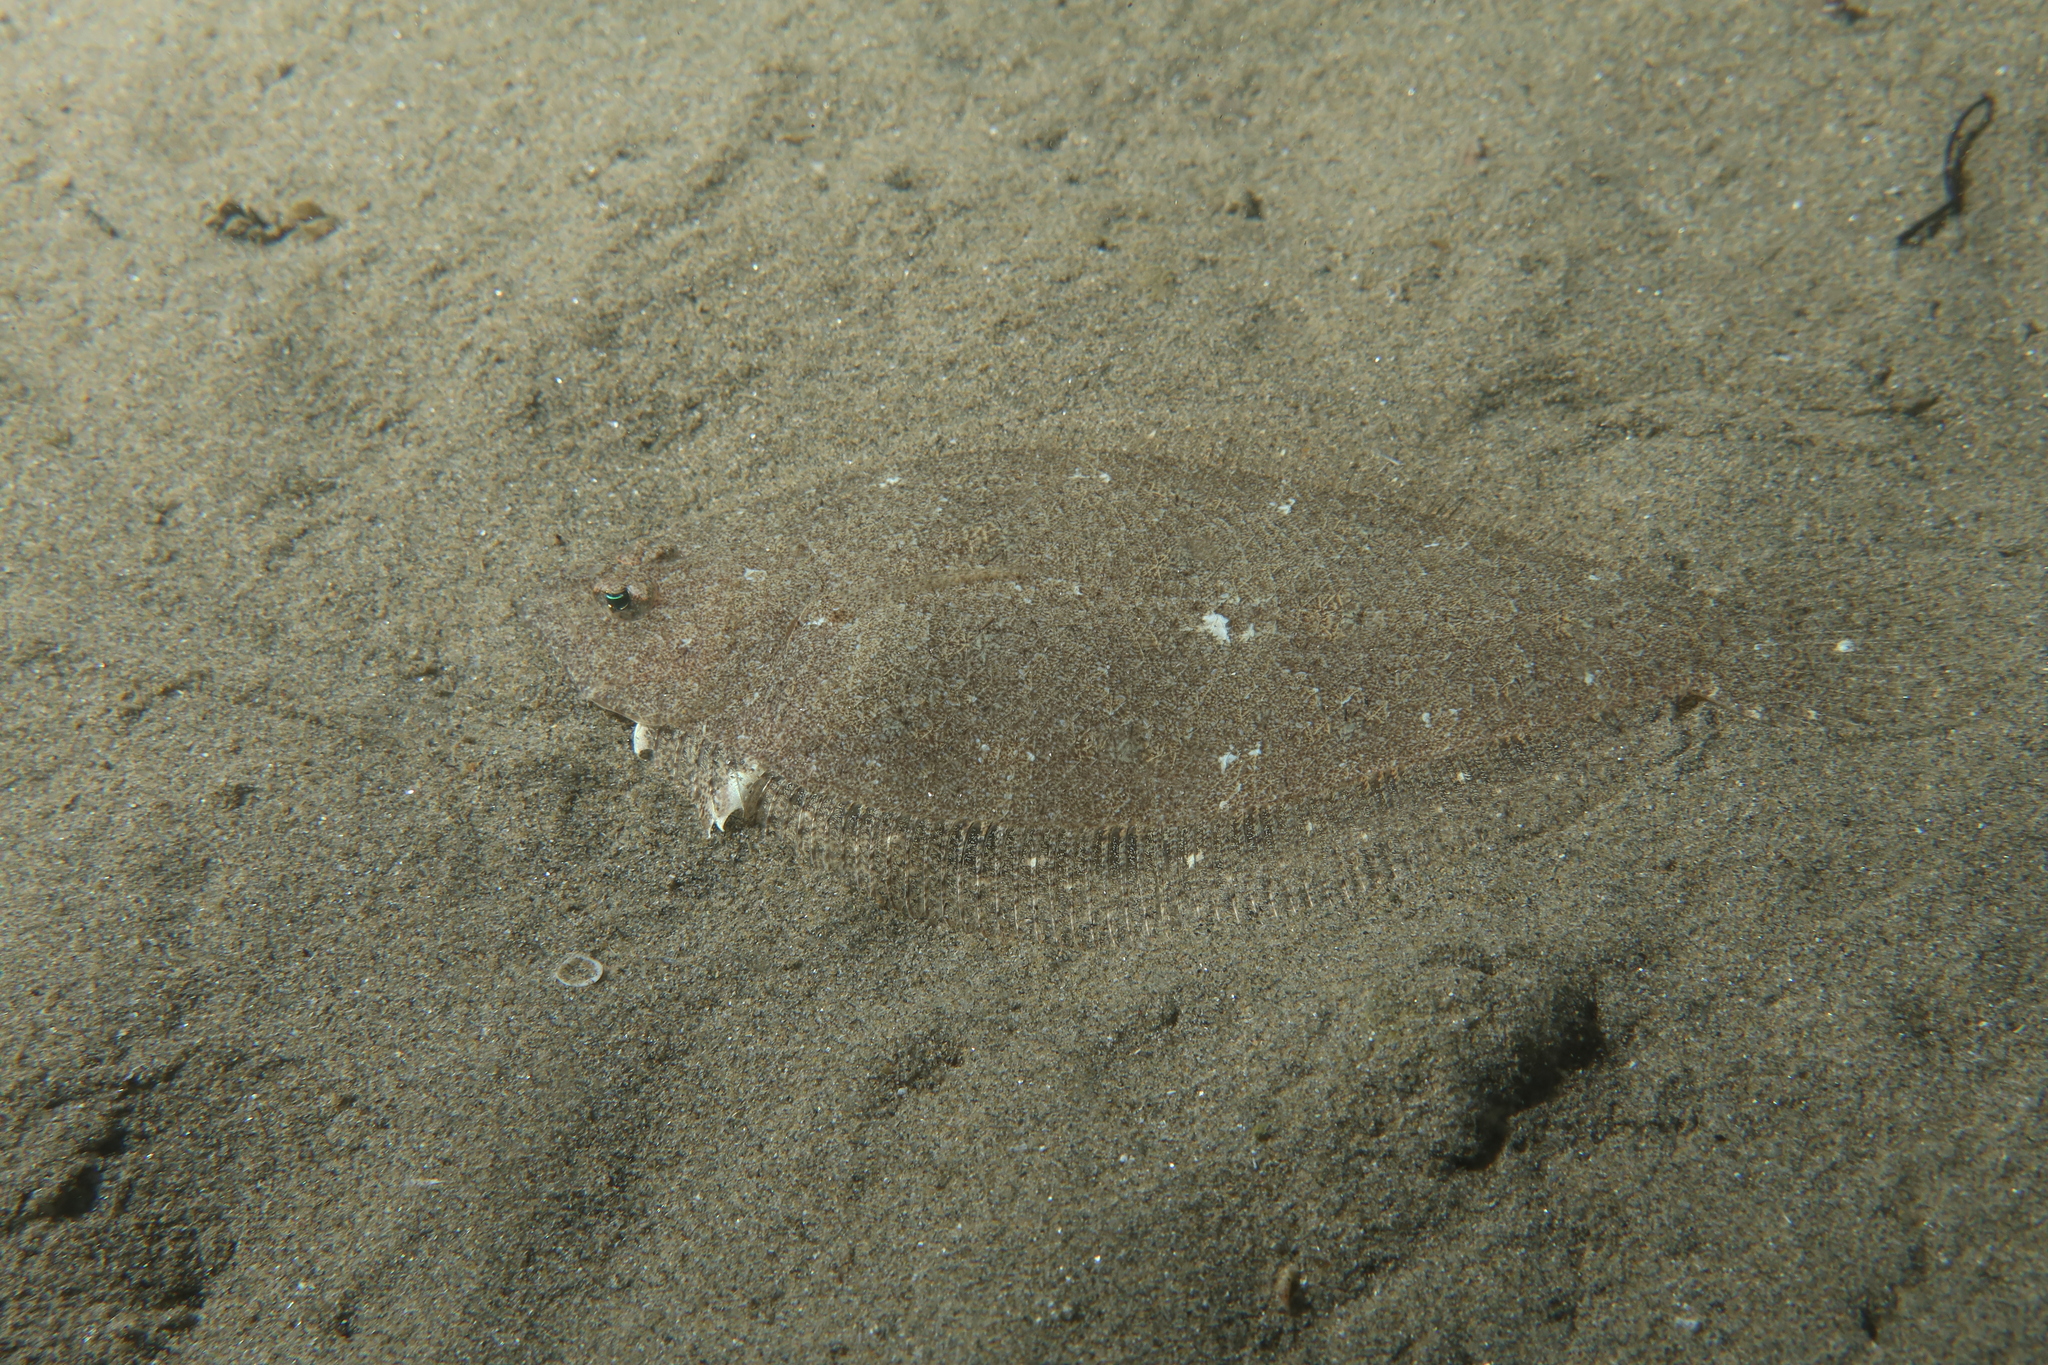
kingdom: Animalia
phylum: Chordata
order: Pleuronectiformes
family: Bothidae
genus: Arnoglossus
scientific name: Arnoglossus laterna
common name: Scaldfish
